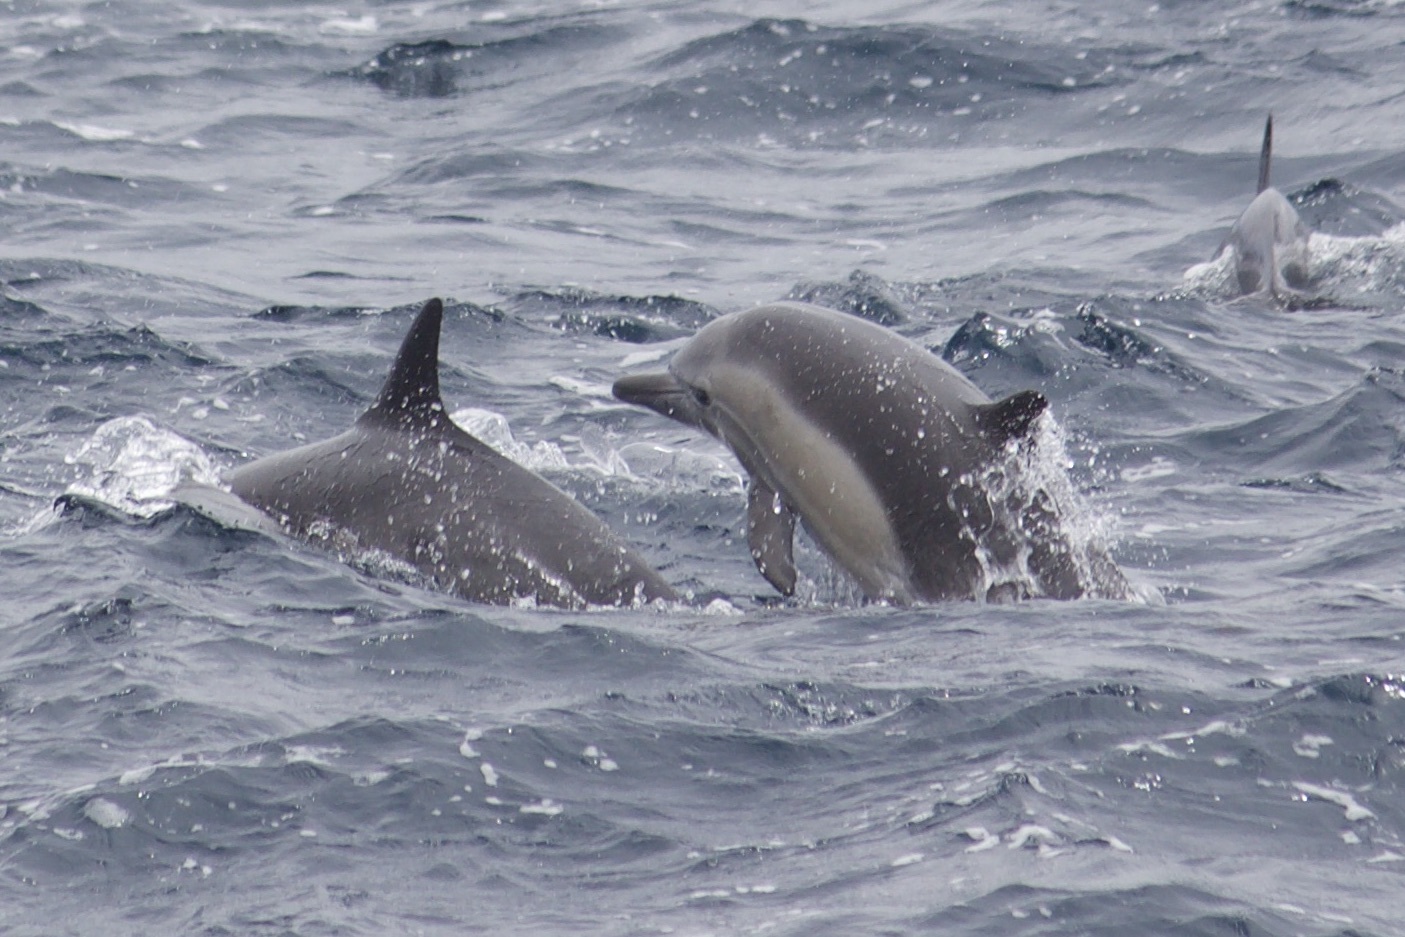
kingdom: Animalia
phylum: Chordata
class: Mammalia
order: Cetacea
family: Delphinidae
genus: Delphinus
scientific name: Delphinus delphis
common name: Common dolphin
